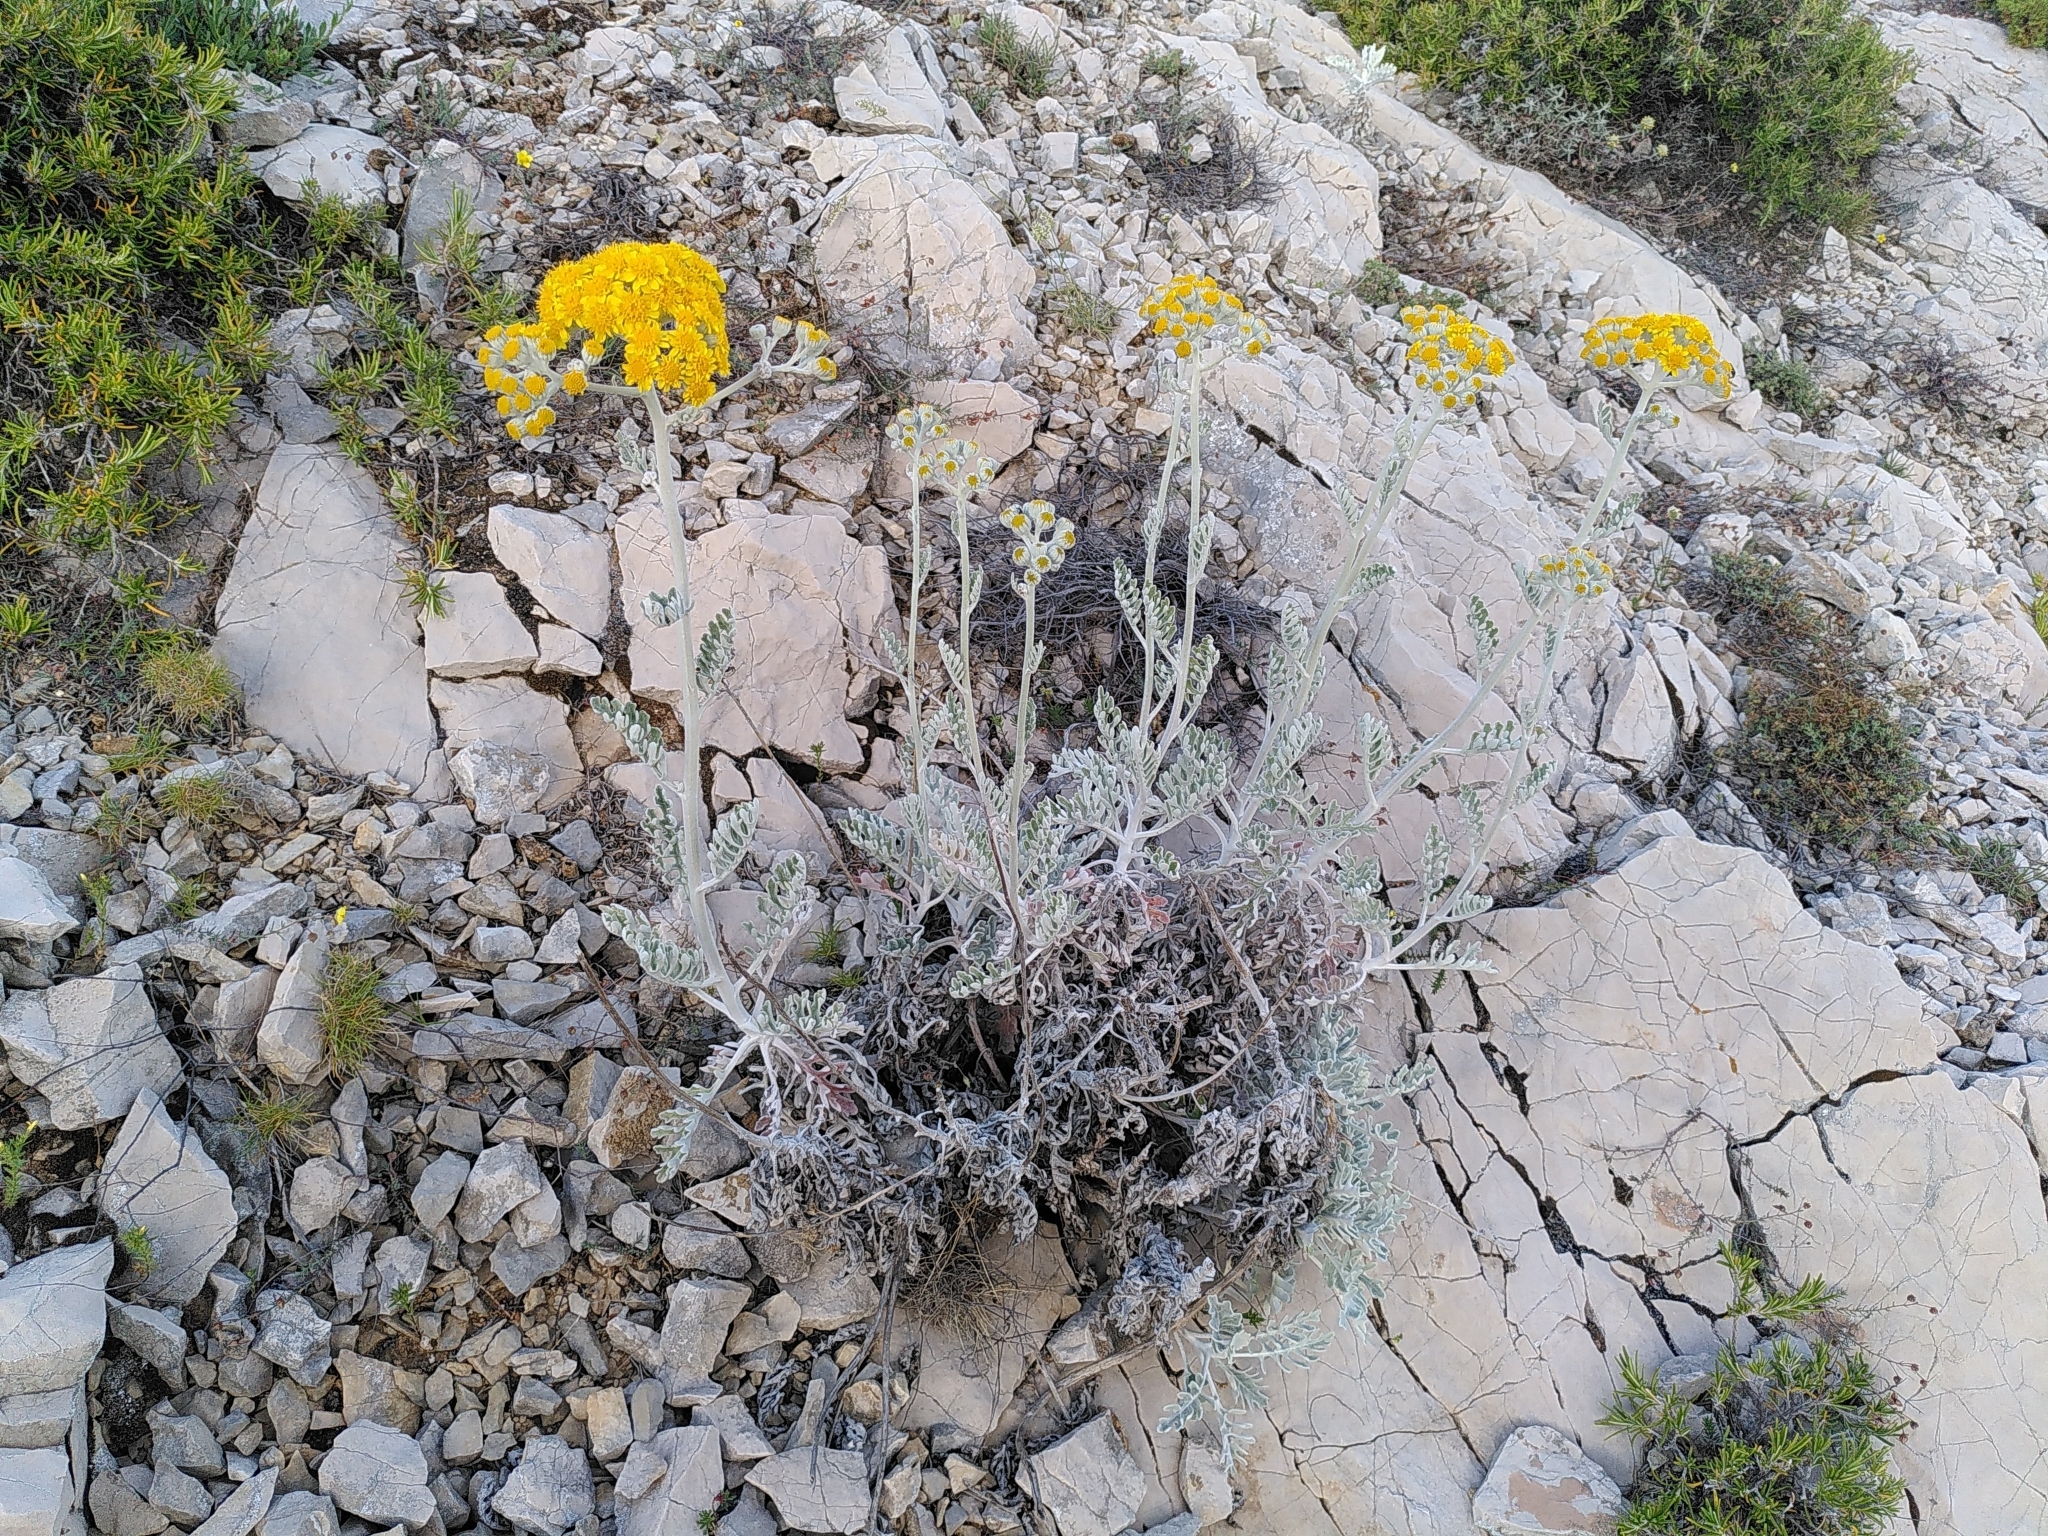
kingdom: Plantae
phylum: Tracheophyta
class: Magnoliopsida
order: Asterales
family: Asteraceae
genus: Jacobaea
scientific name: Jacobaea maritima
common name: Silver ragwort
